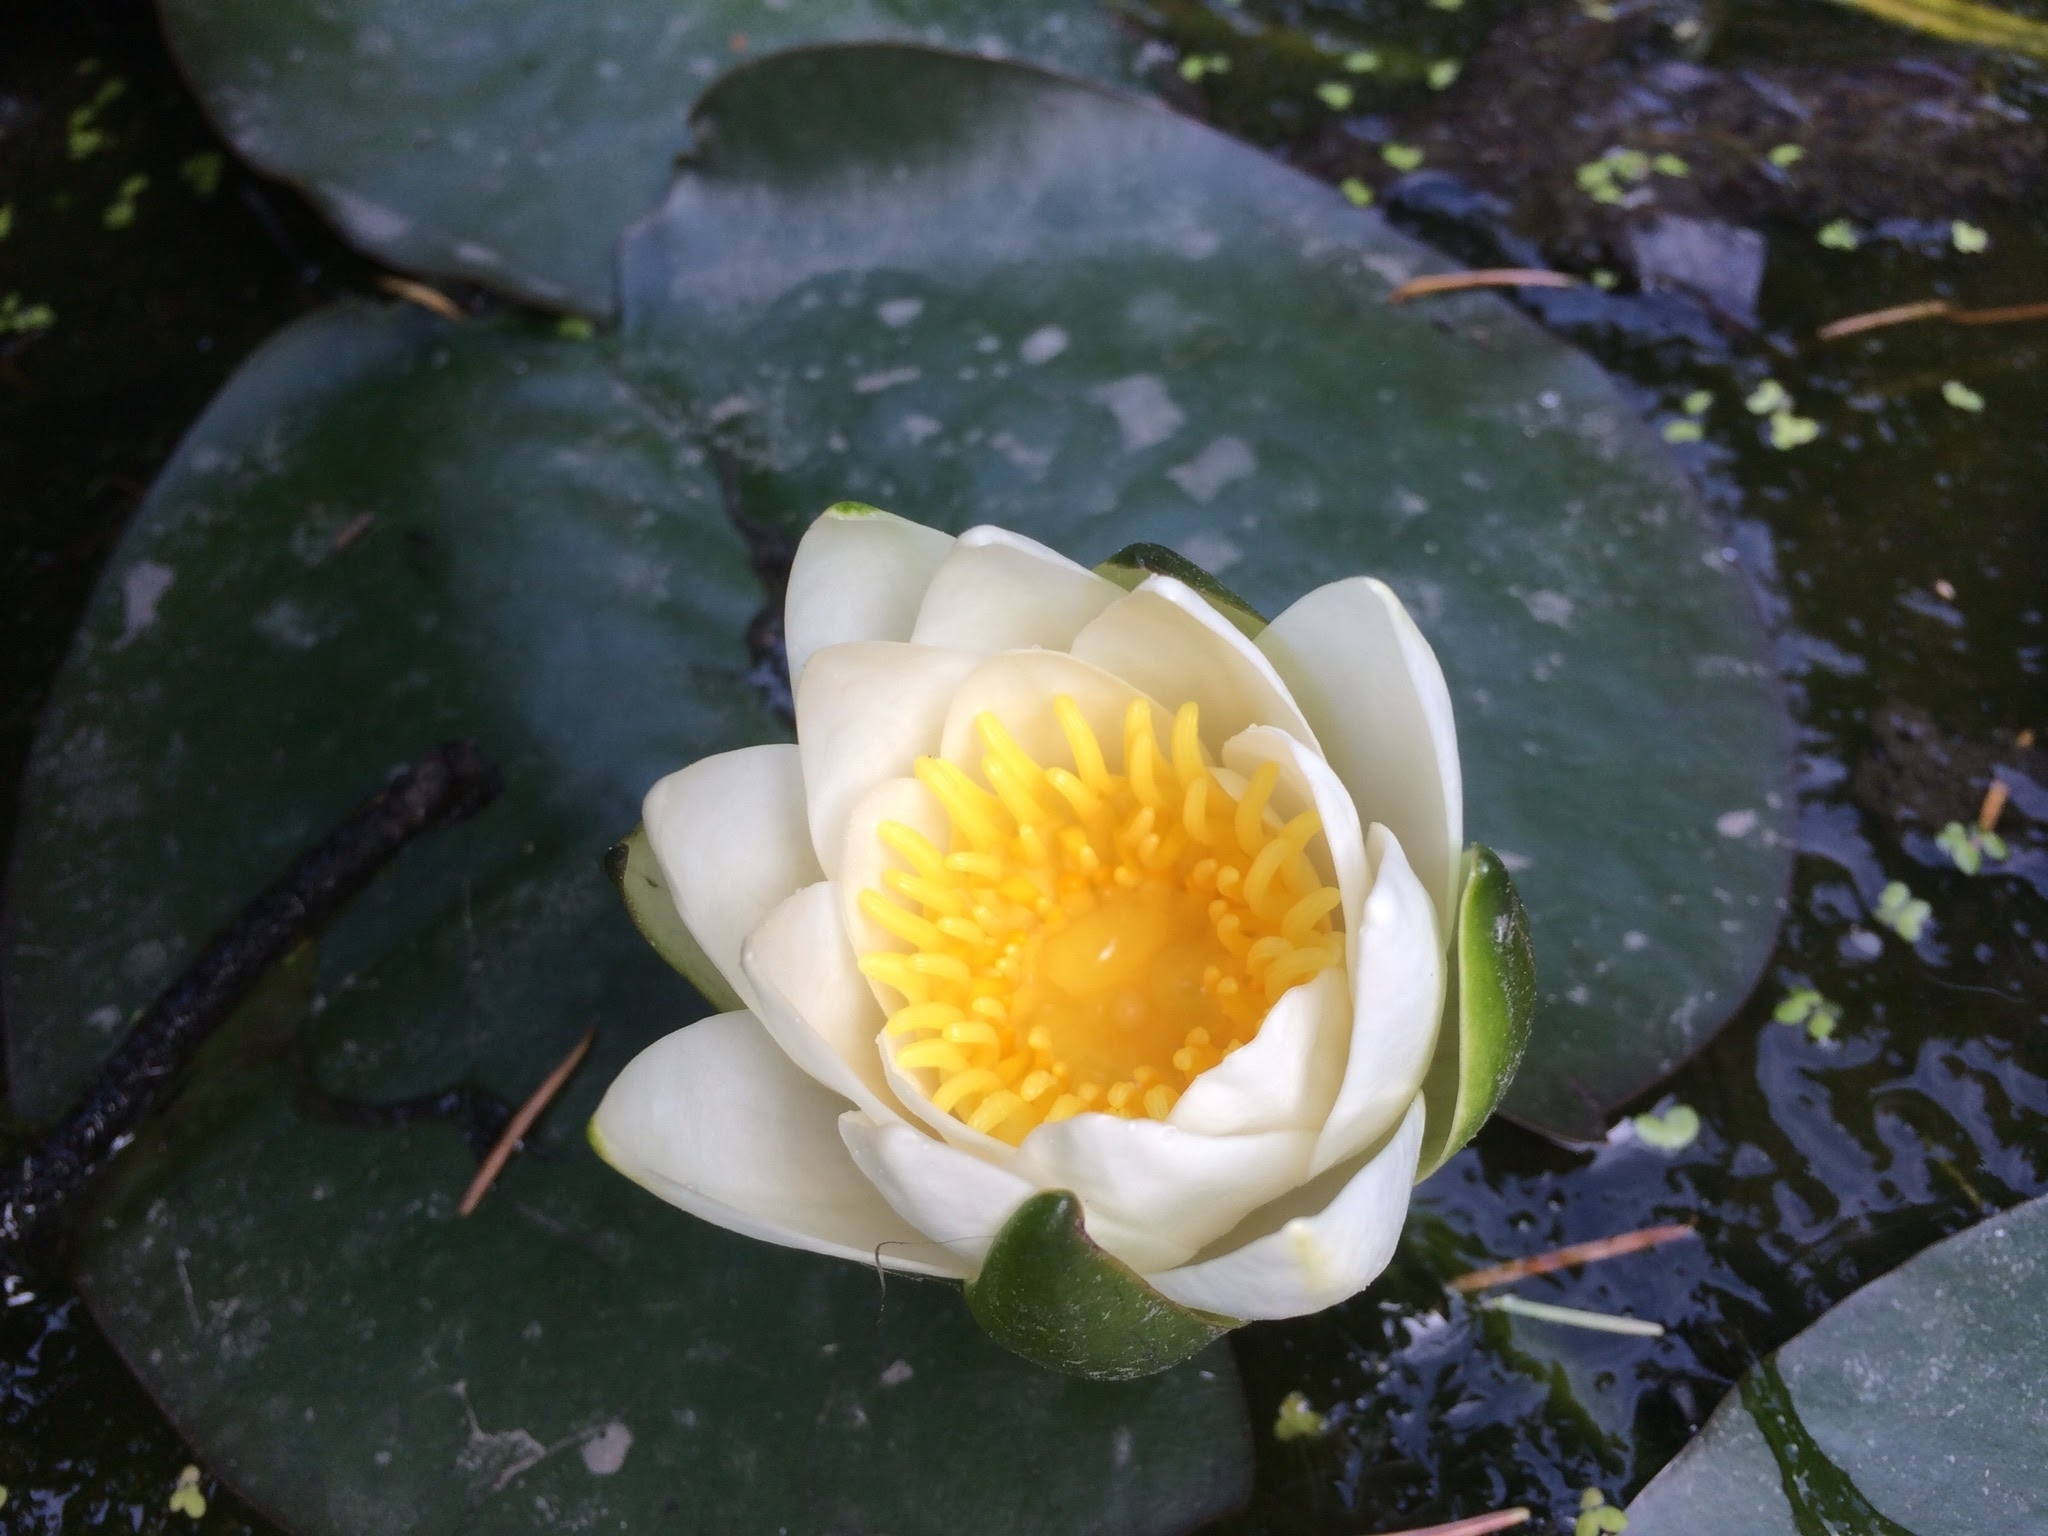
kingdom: Plantae
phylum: Tracheophyta
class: Magnoliopsida
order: Nymphaeales
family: Nymphaeaceae
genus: Nymphaea
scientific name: Nymphaea odorata
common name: Fragrant water-lily
